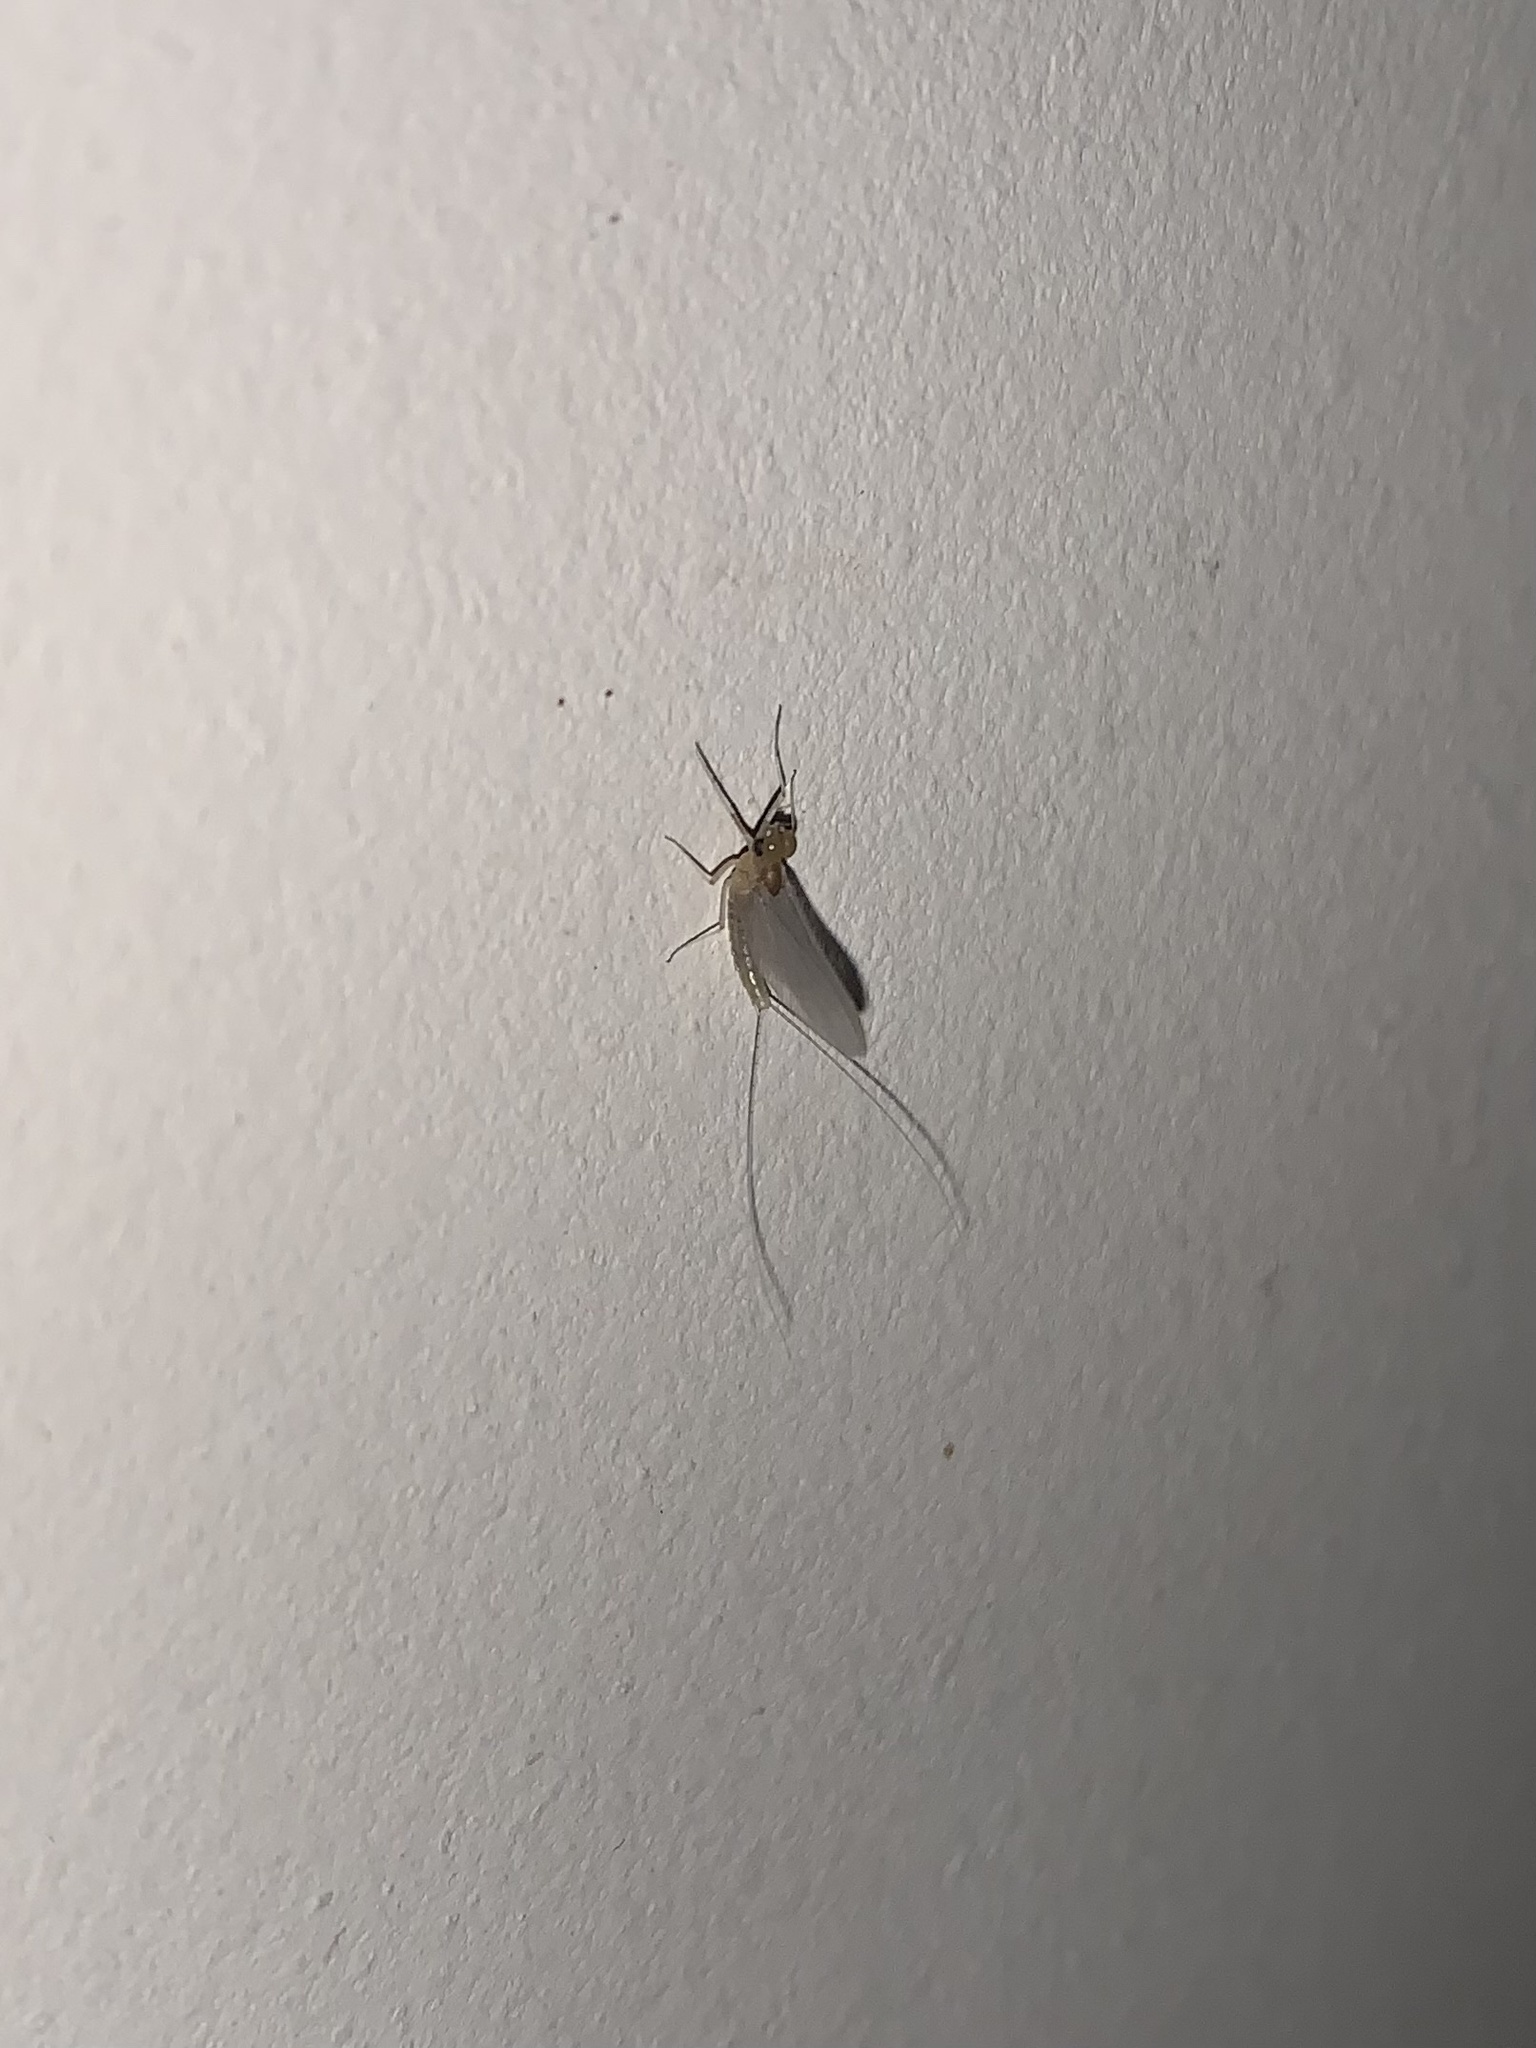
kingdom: Animalia
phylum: Arthropoda
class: Insecta
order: Ephemeroptera
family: Baetidae
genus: Baetis
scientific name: Baetis rhodani
